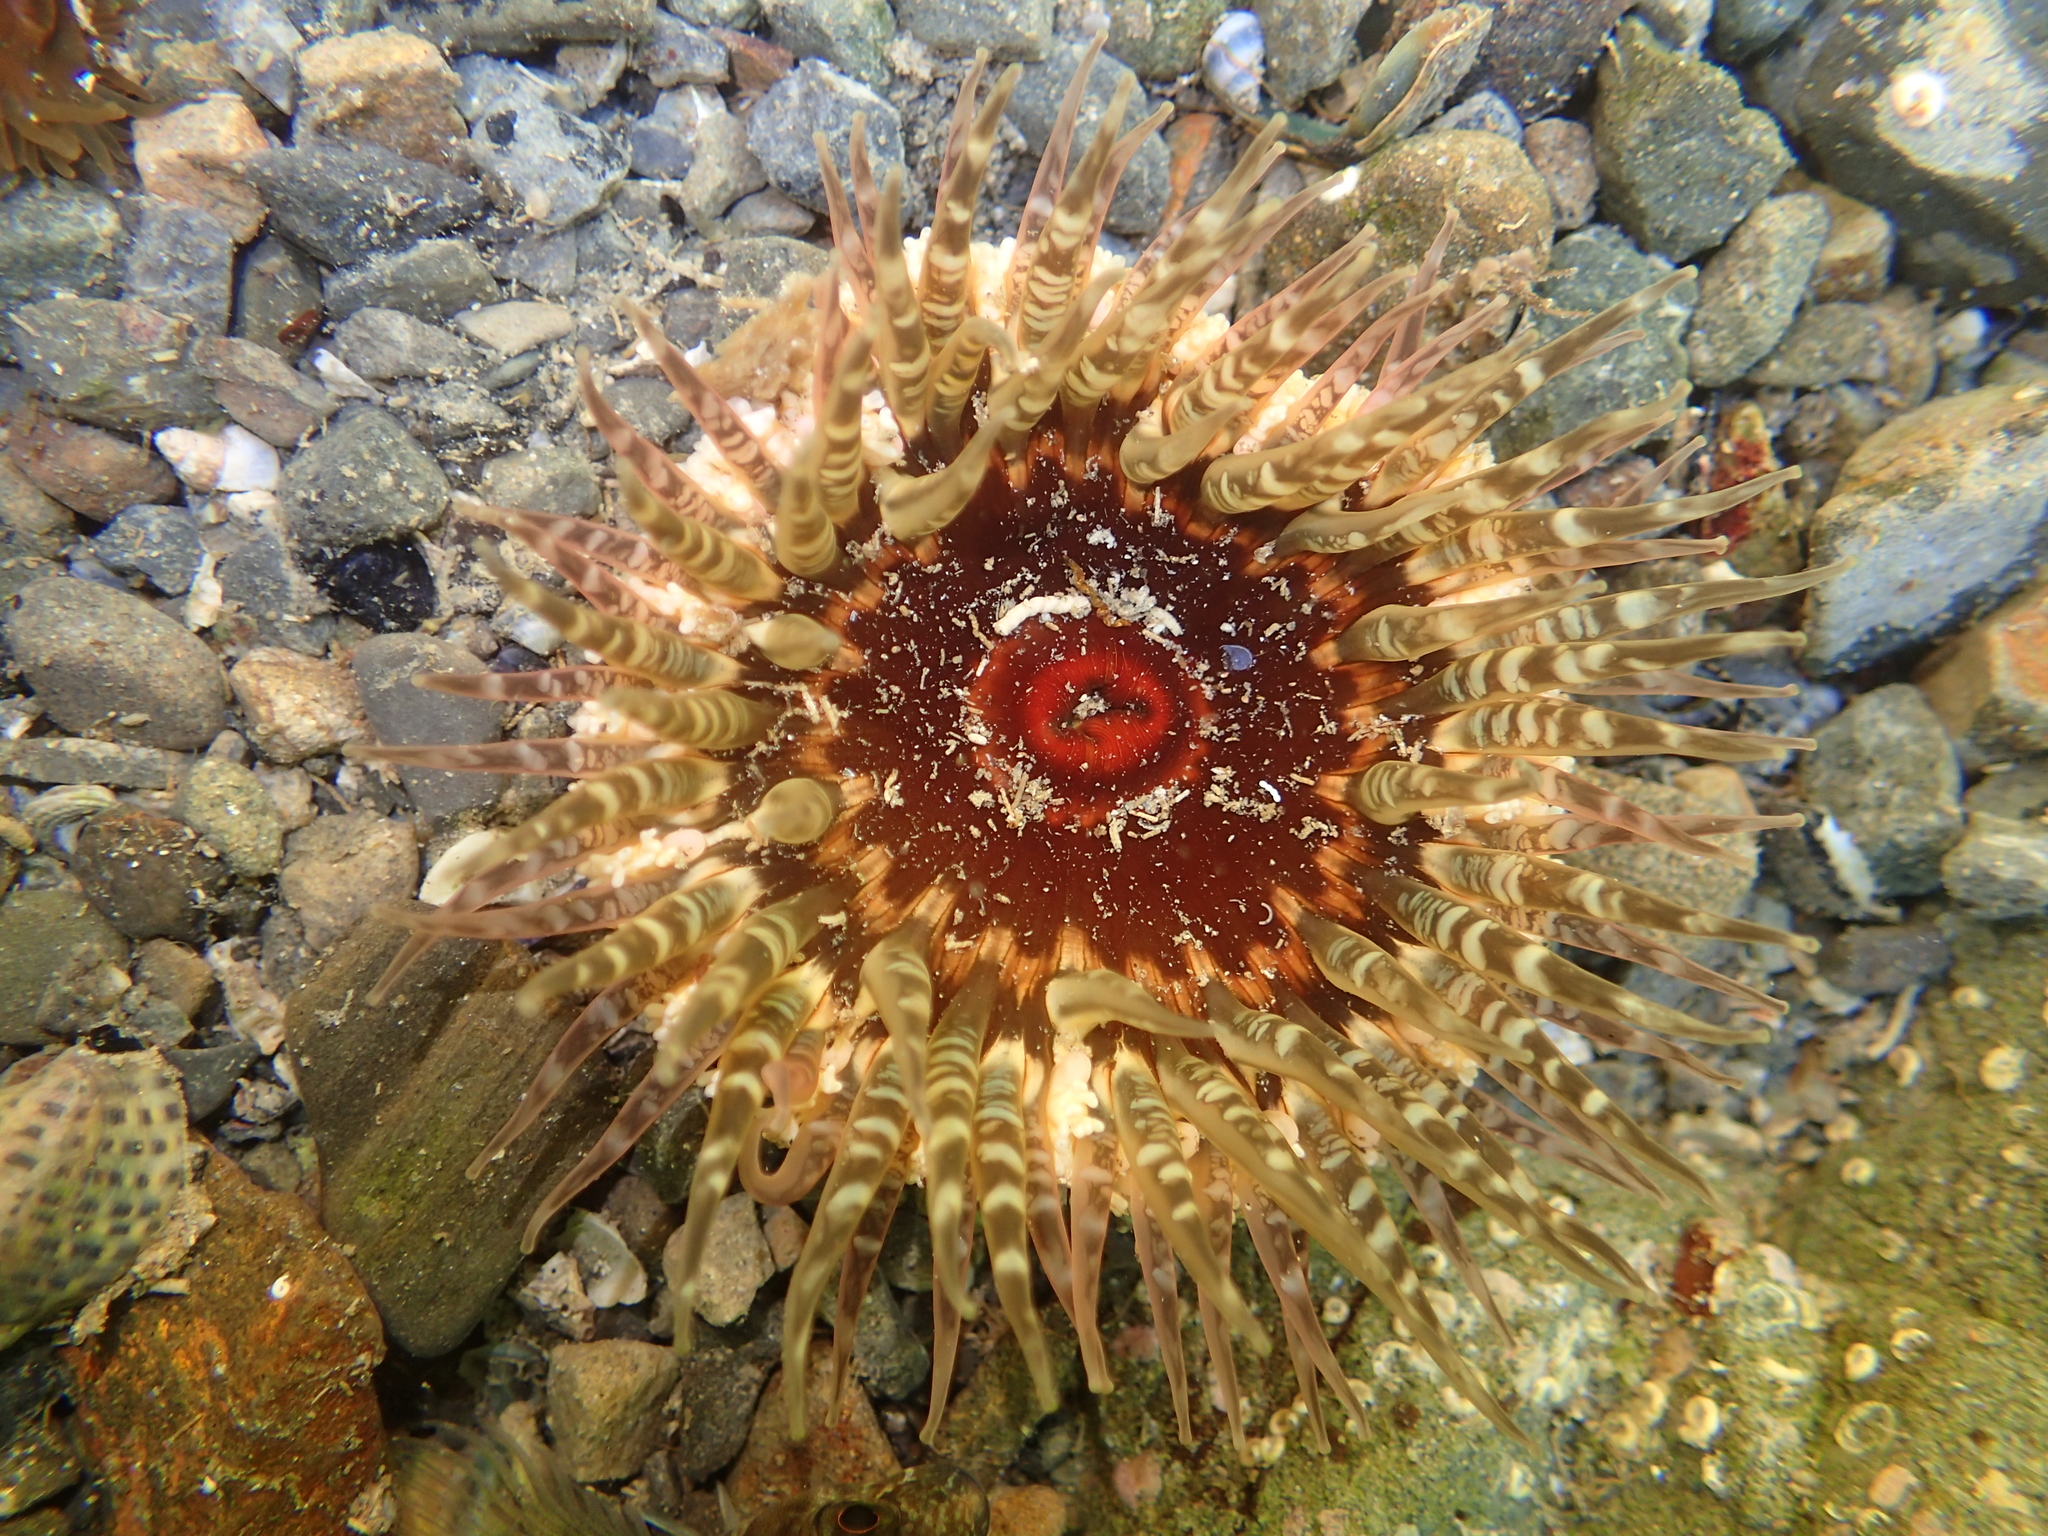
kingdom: Animalia
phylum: Cnidaria
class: Anthozoa
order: Actiniaria
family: Actiniidae
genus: Oulactis
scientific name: Oulactis muscosa
